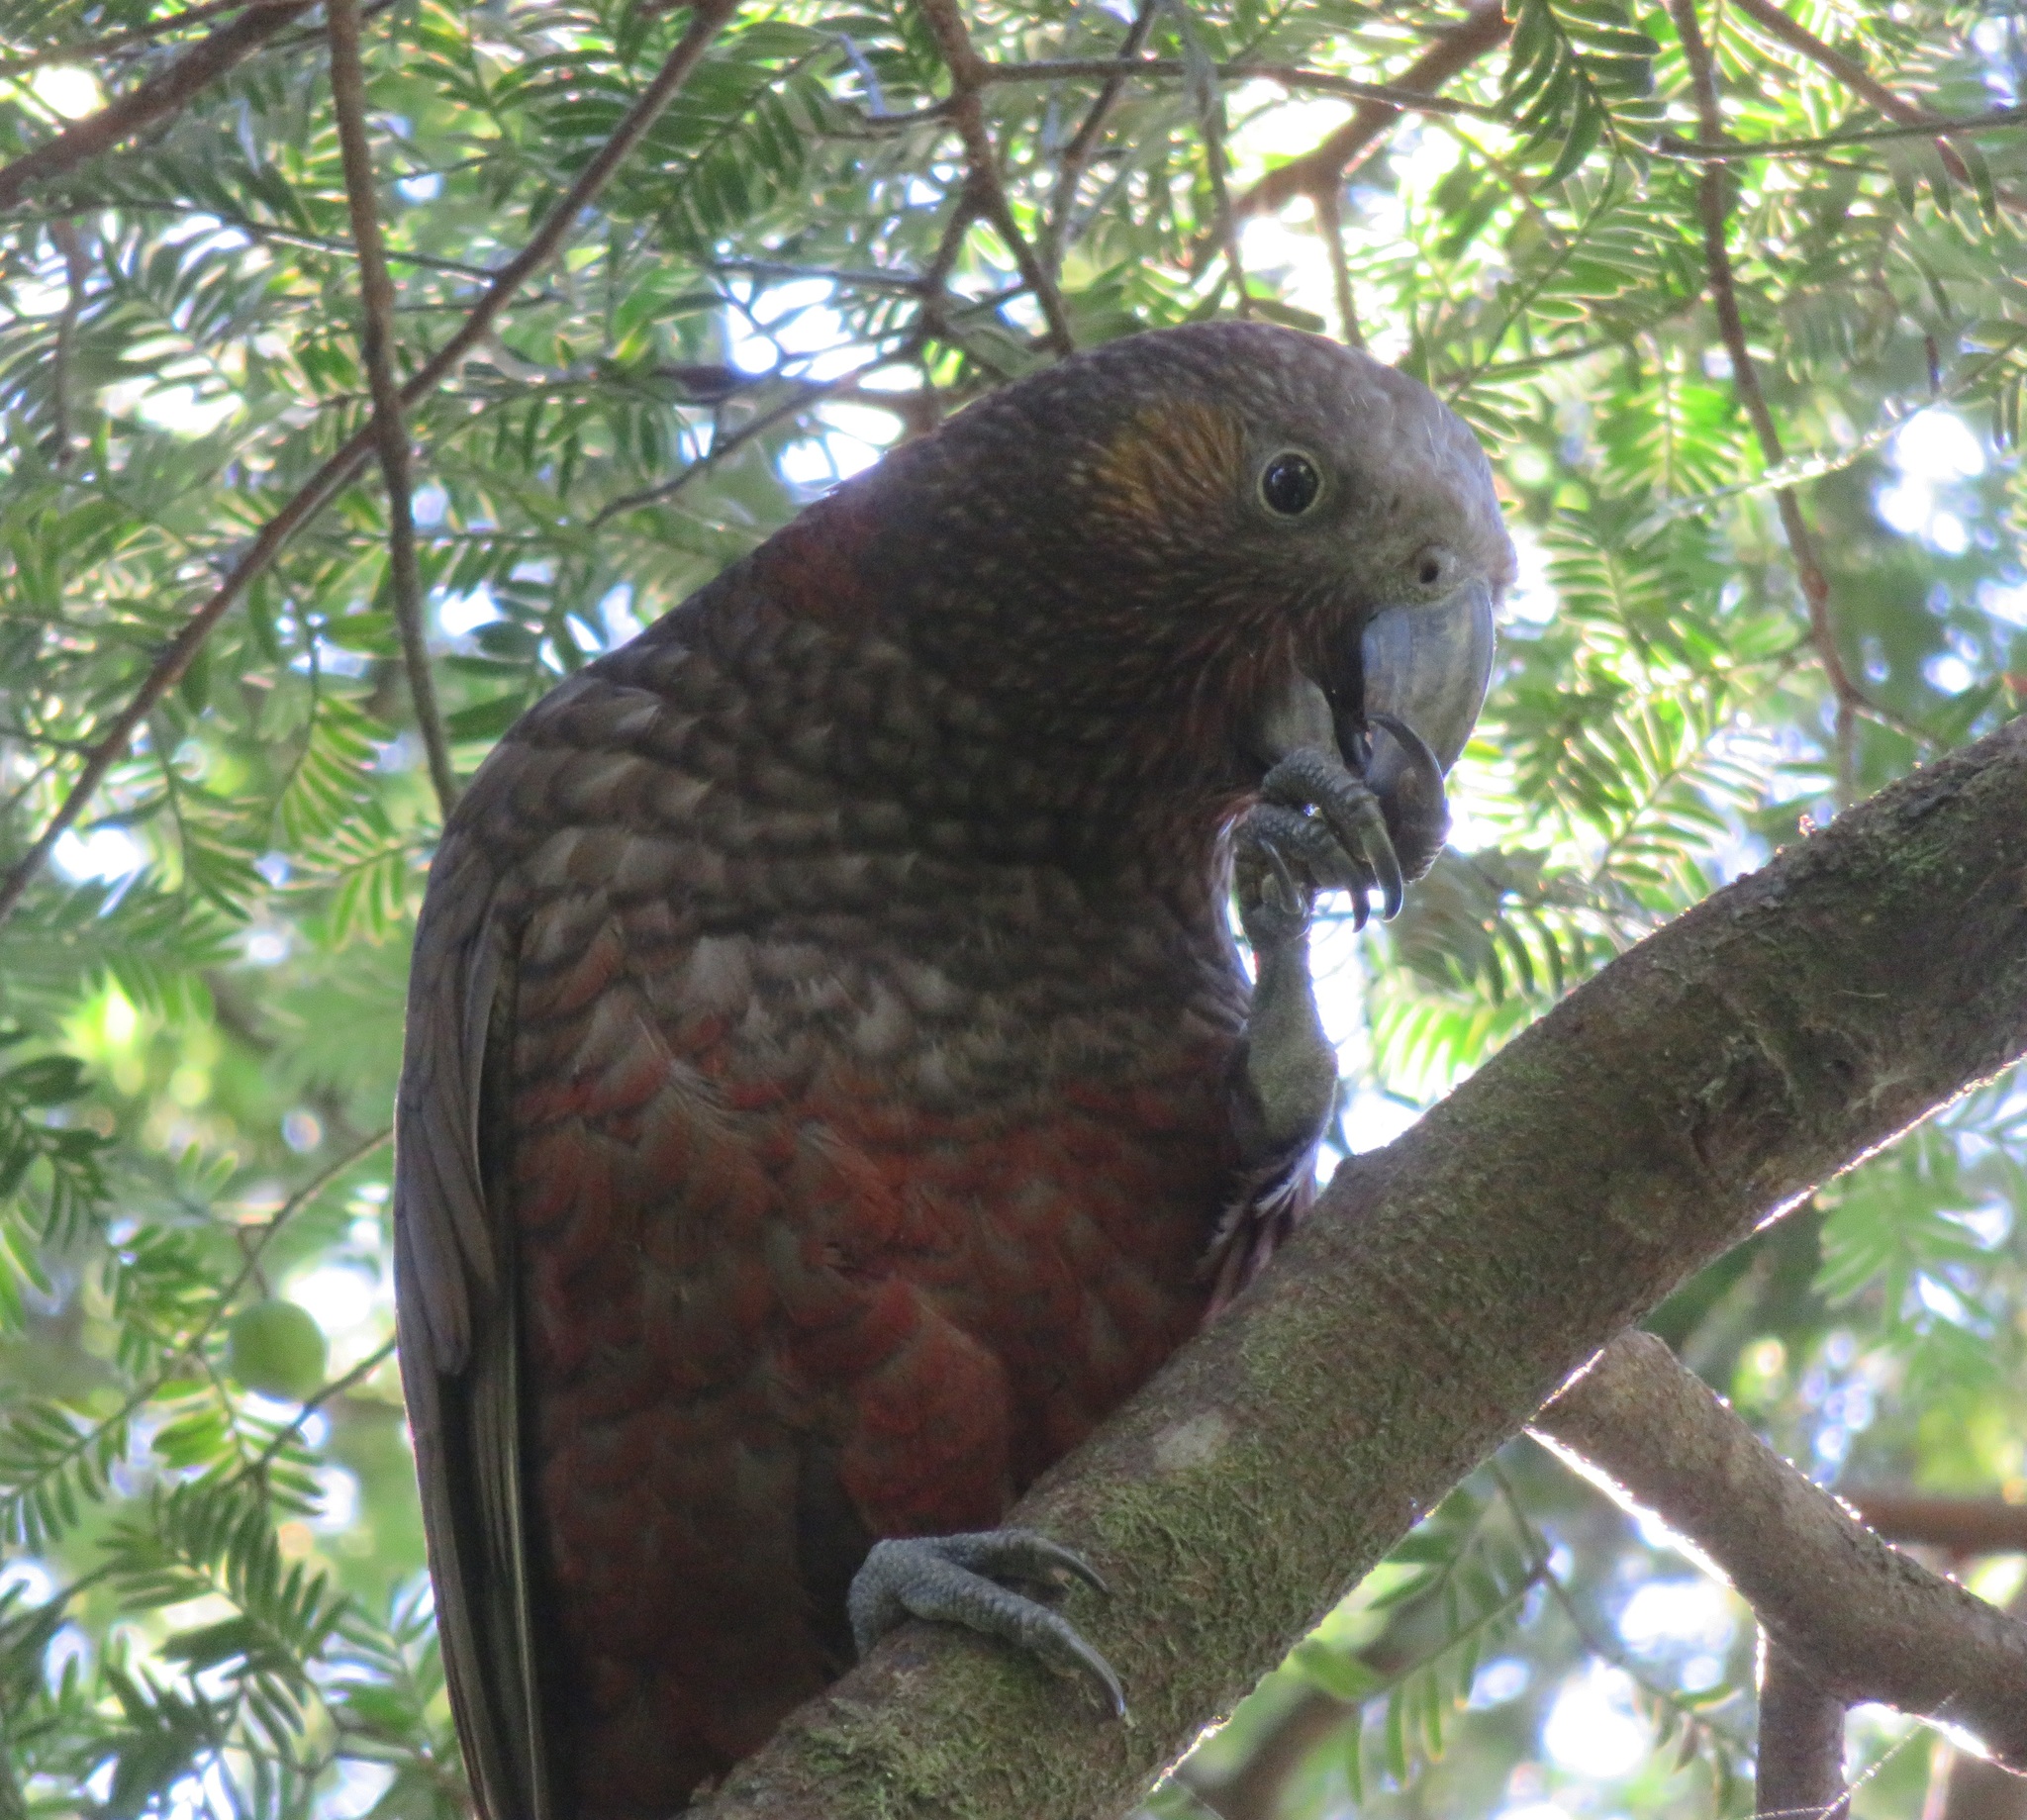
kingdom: Animalia
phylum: Chordata
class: Aves
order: Psittaciformes
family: Psittacidae
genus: Nestor
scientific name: Nestor meridionalis
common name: New zealand kaka
